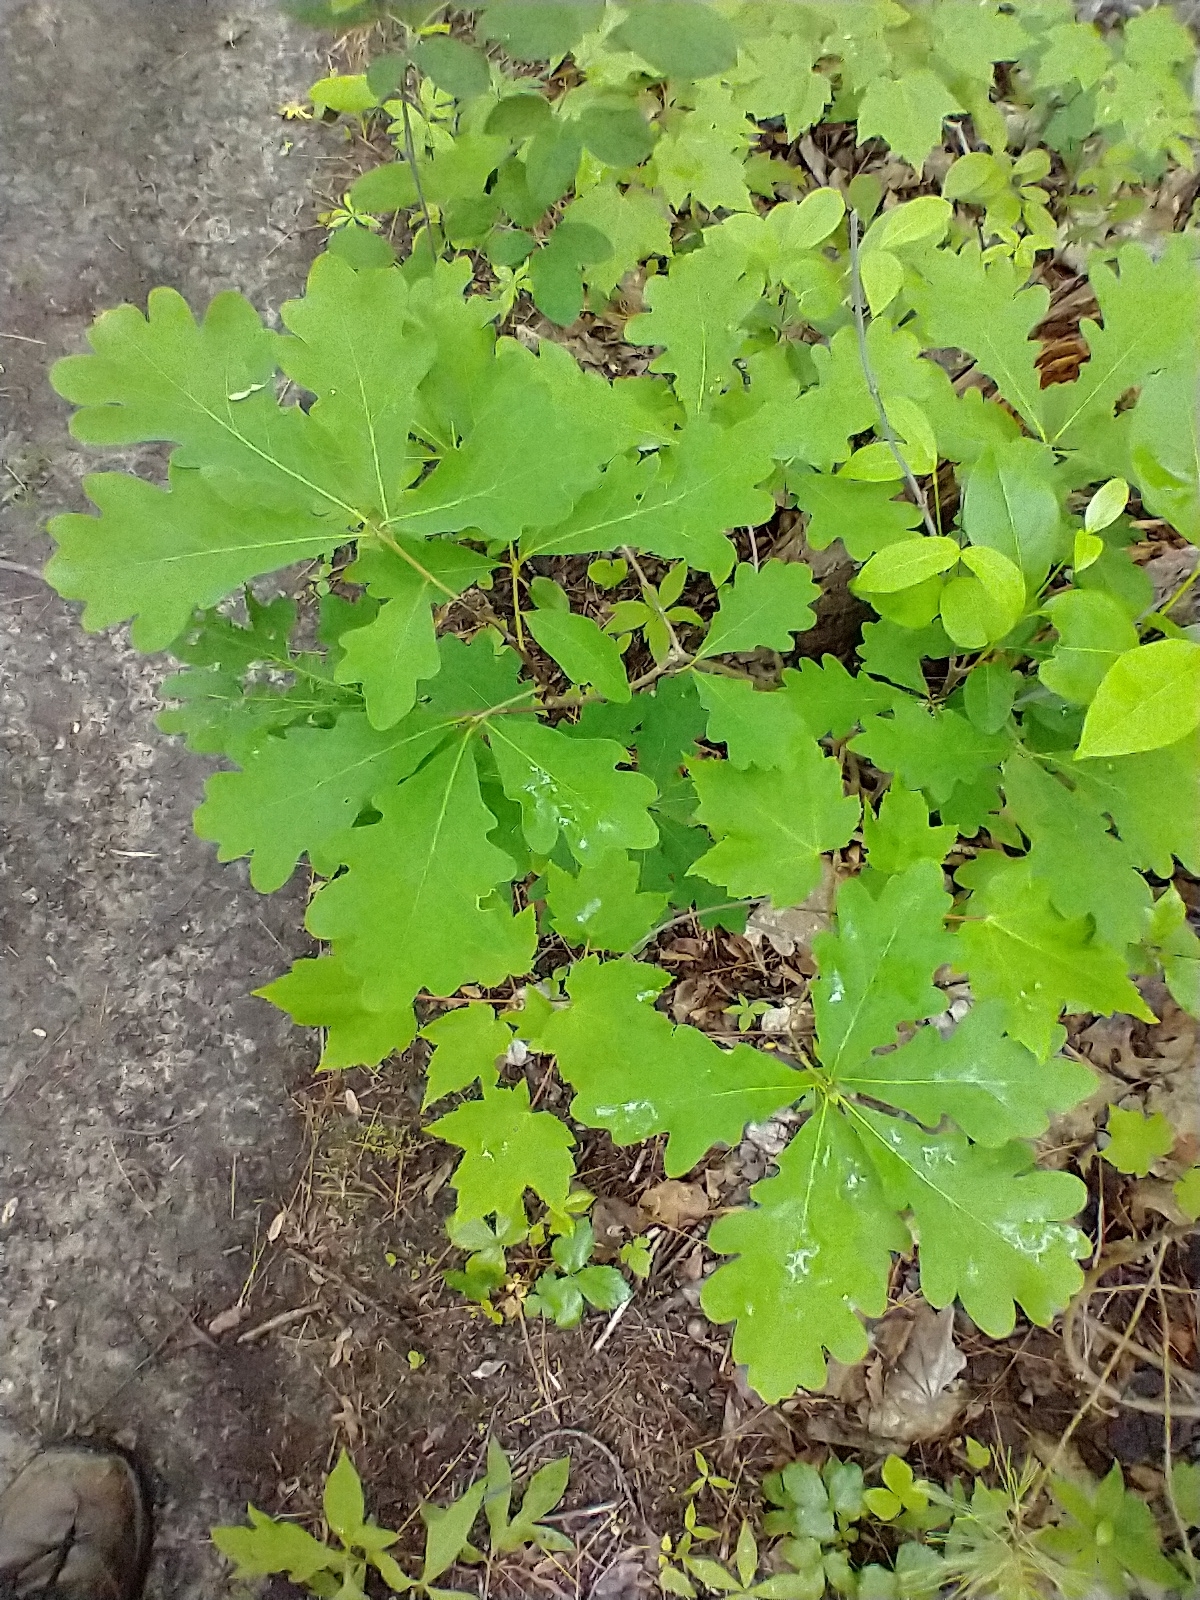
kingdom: Plantae
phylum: Tracheophyta
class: Magnoliopsida
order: Fagales
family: Fagaceae
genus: Quercus
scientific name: Quercus alba
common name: White oak
